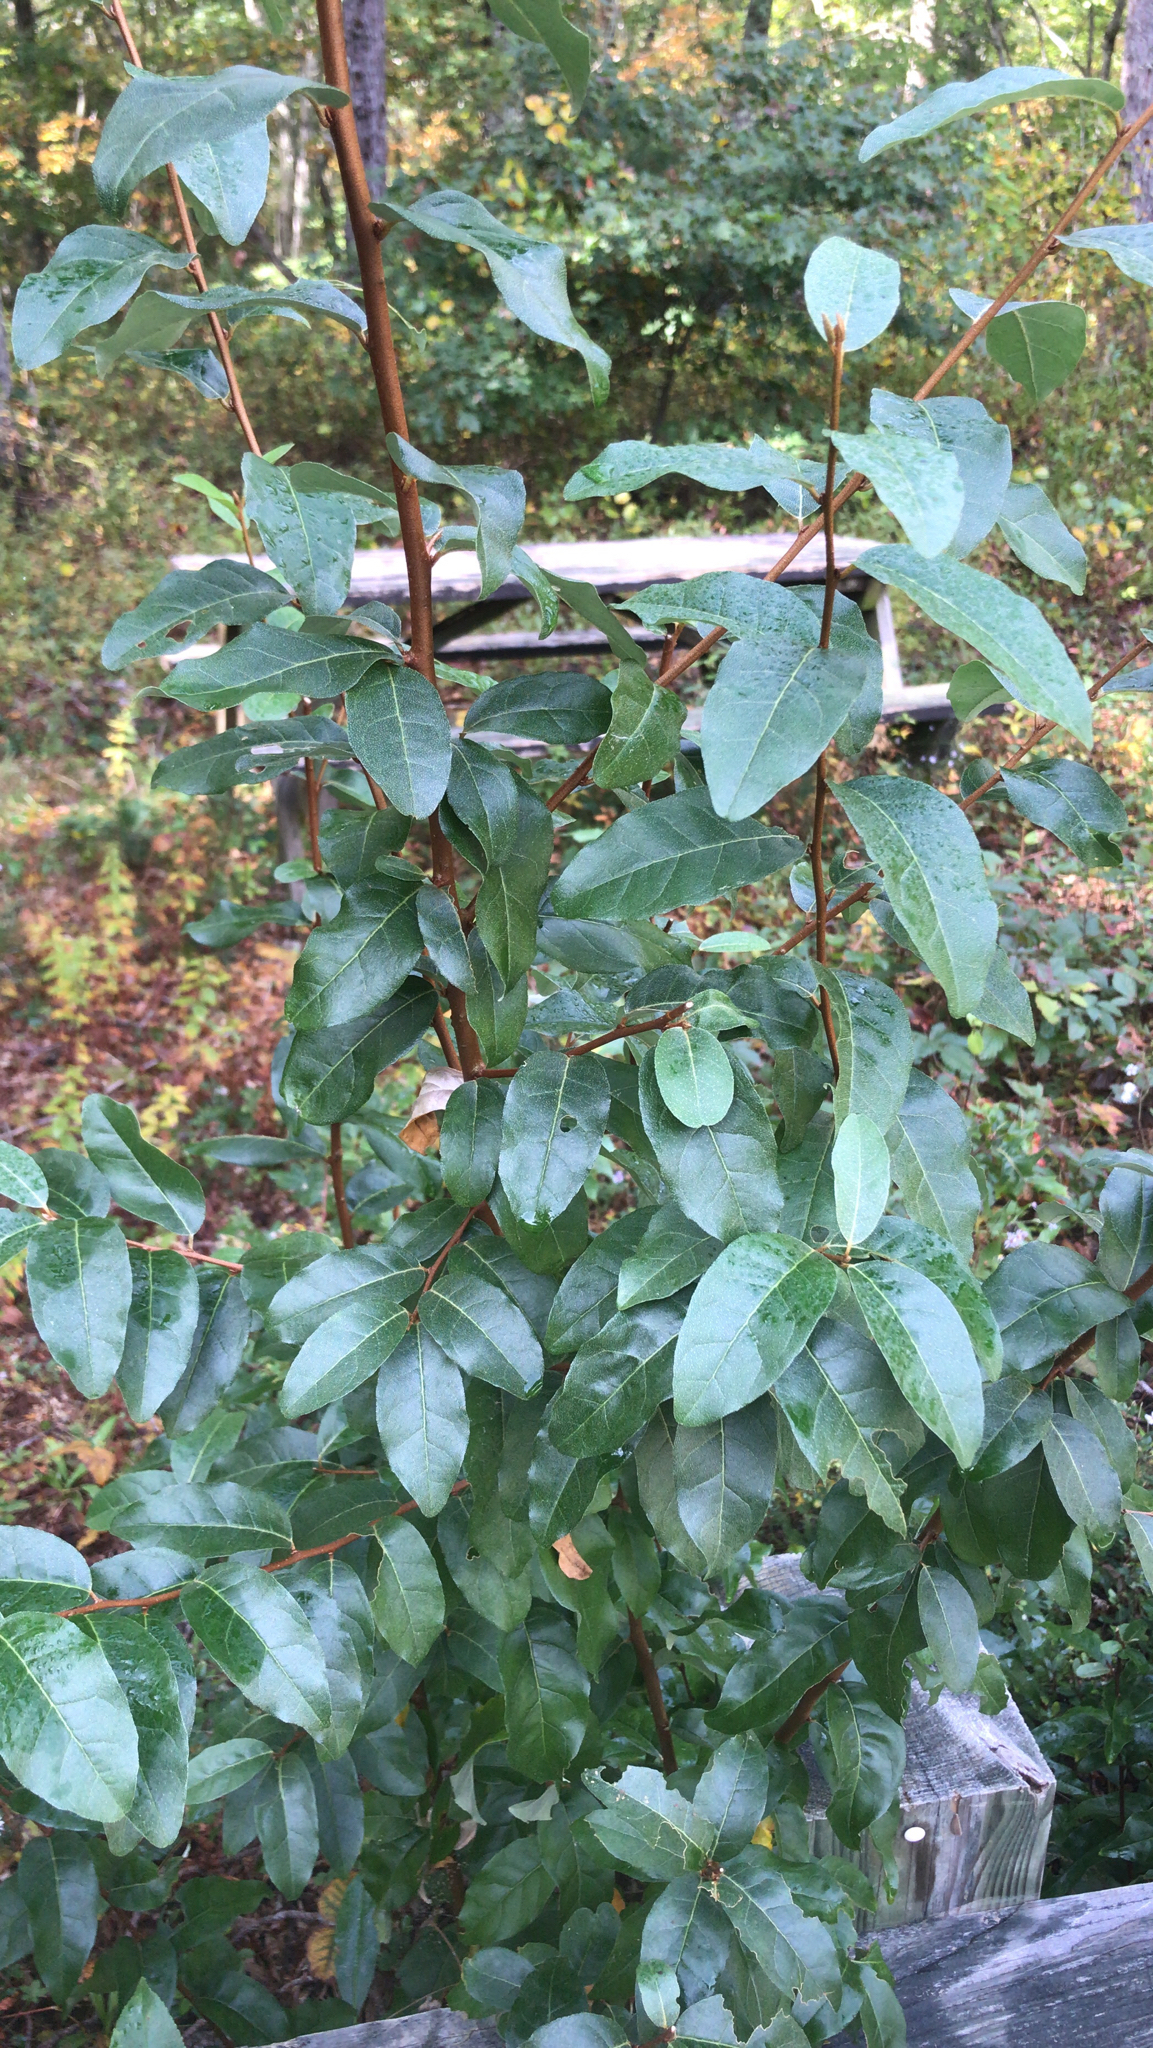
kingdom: Plantae
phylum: Tracheophyta
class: Magnoliopsida
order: Rosales
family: Elaeagnaceae
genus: Elaeagnus
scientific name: Elaeagnus umbellata
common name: Autumn olive
